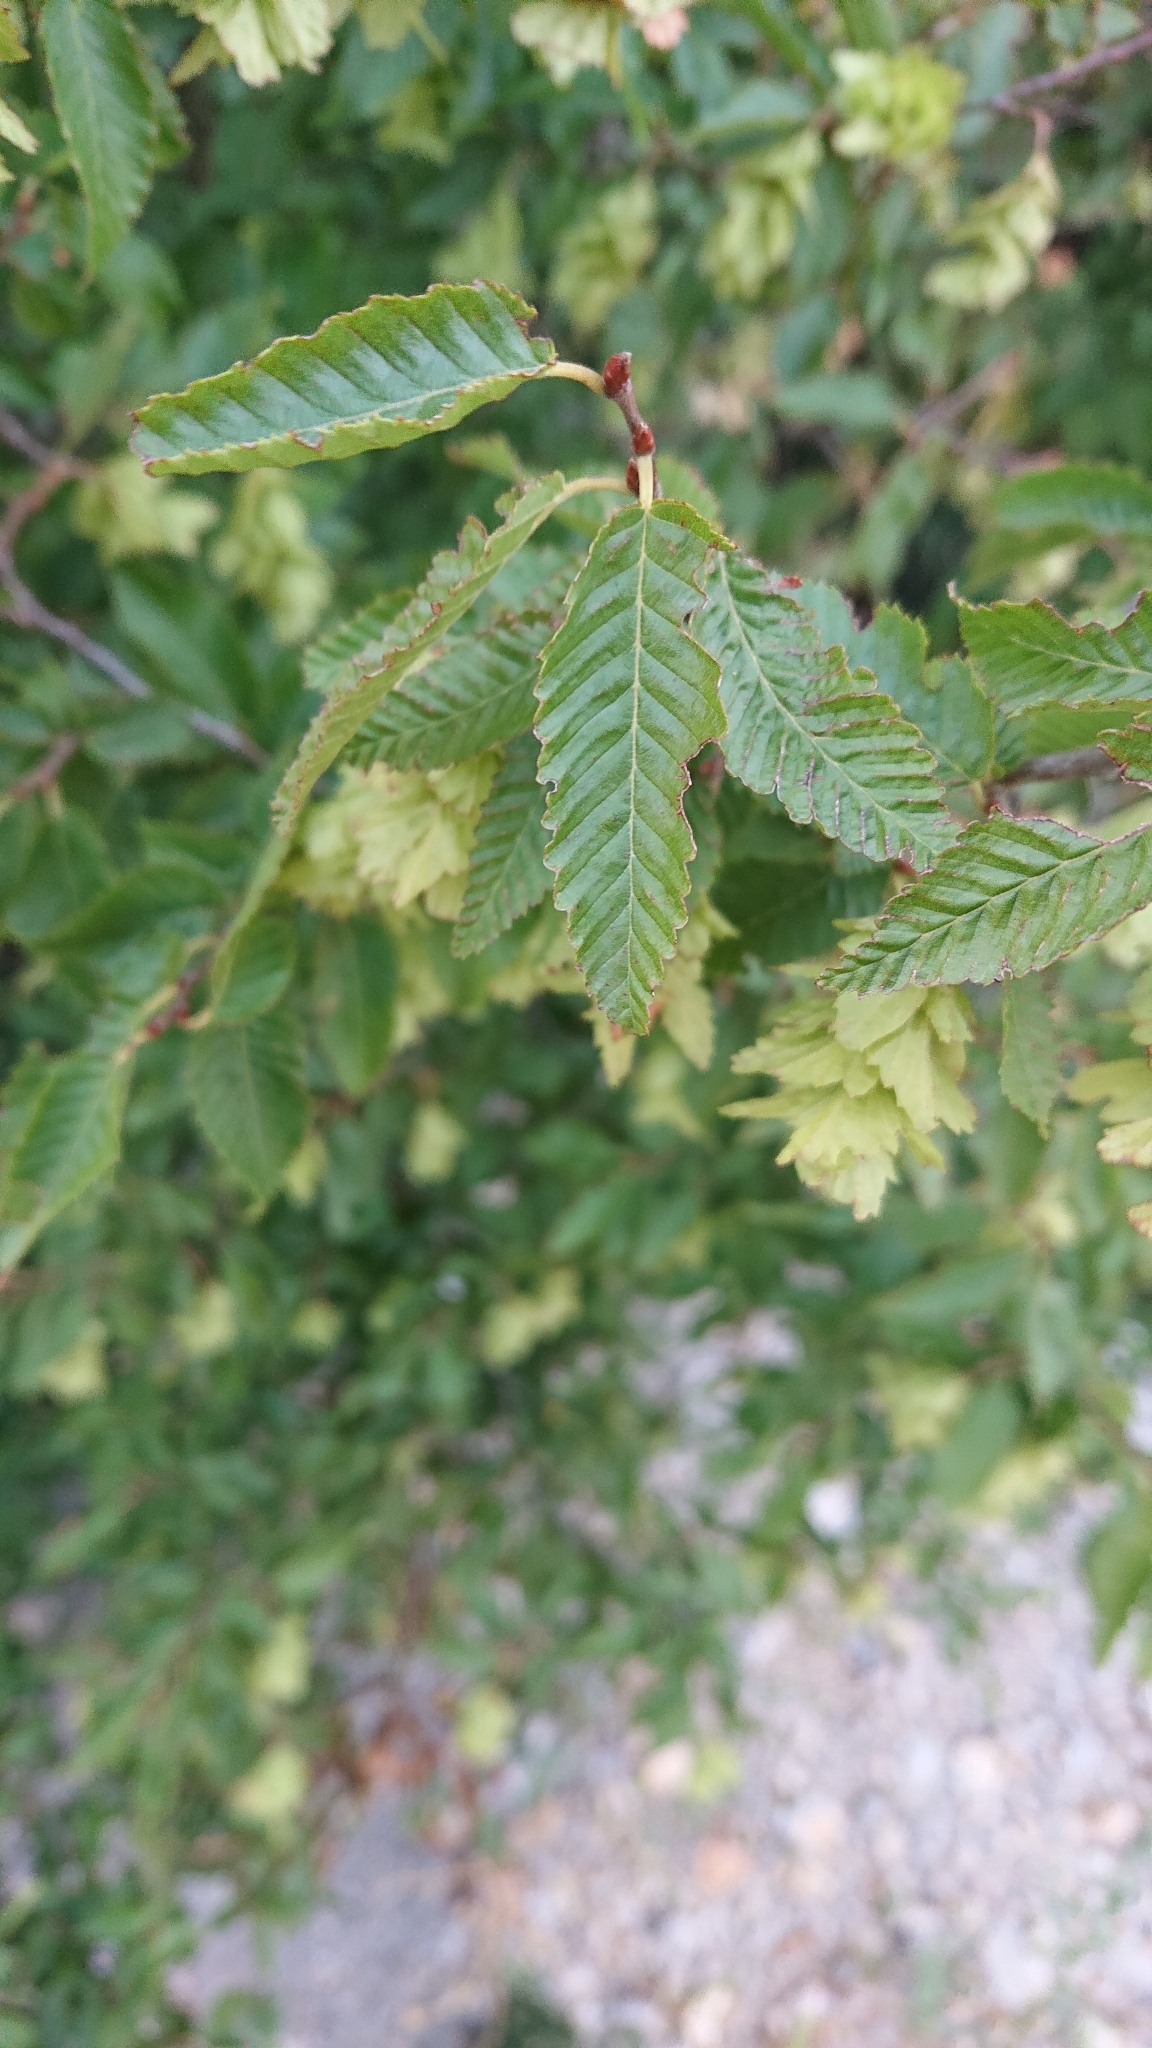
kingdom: Plantae
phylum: Tracheophyta
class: Magnoliopsida
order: Fagales
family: Betulaceae
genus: Carpinus
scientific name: Carpinus orientalis
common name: Eastern hornbeam
